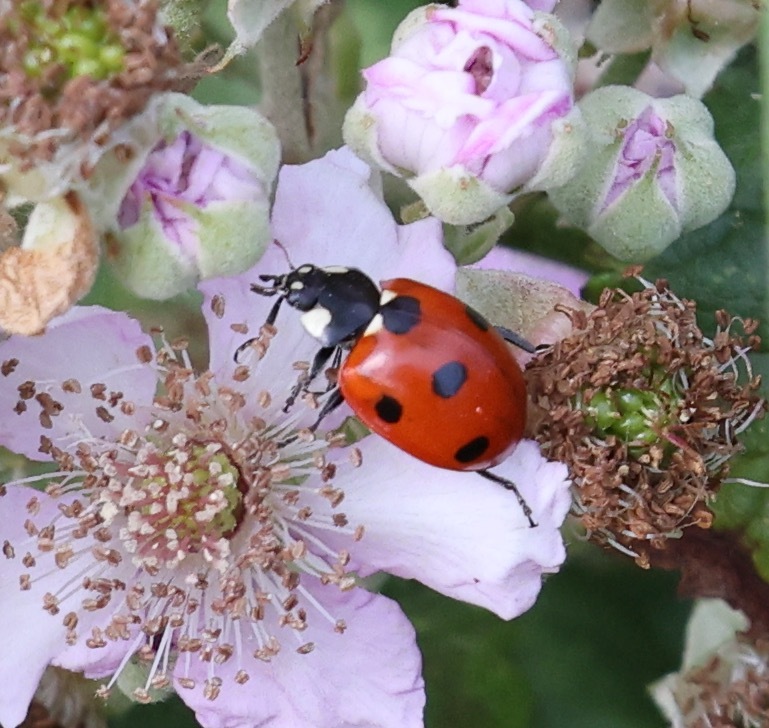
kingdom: Animalia
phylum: Arthropoda
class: Insecta
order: Coleoptera
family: Coccinellidae
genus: Coccinella
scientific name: Coccinella septempunctata
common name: Sevenspotted lady beetle
